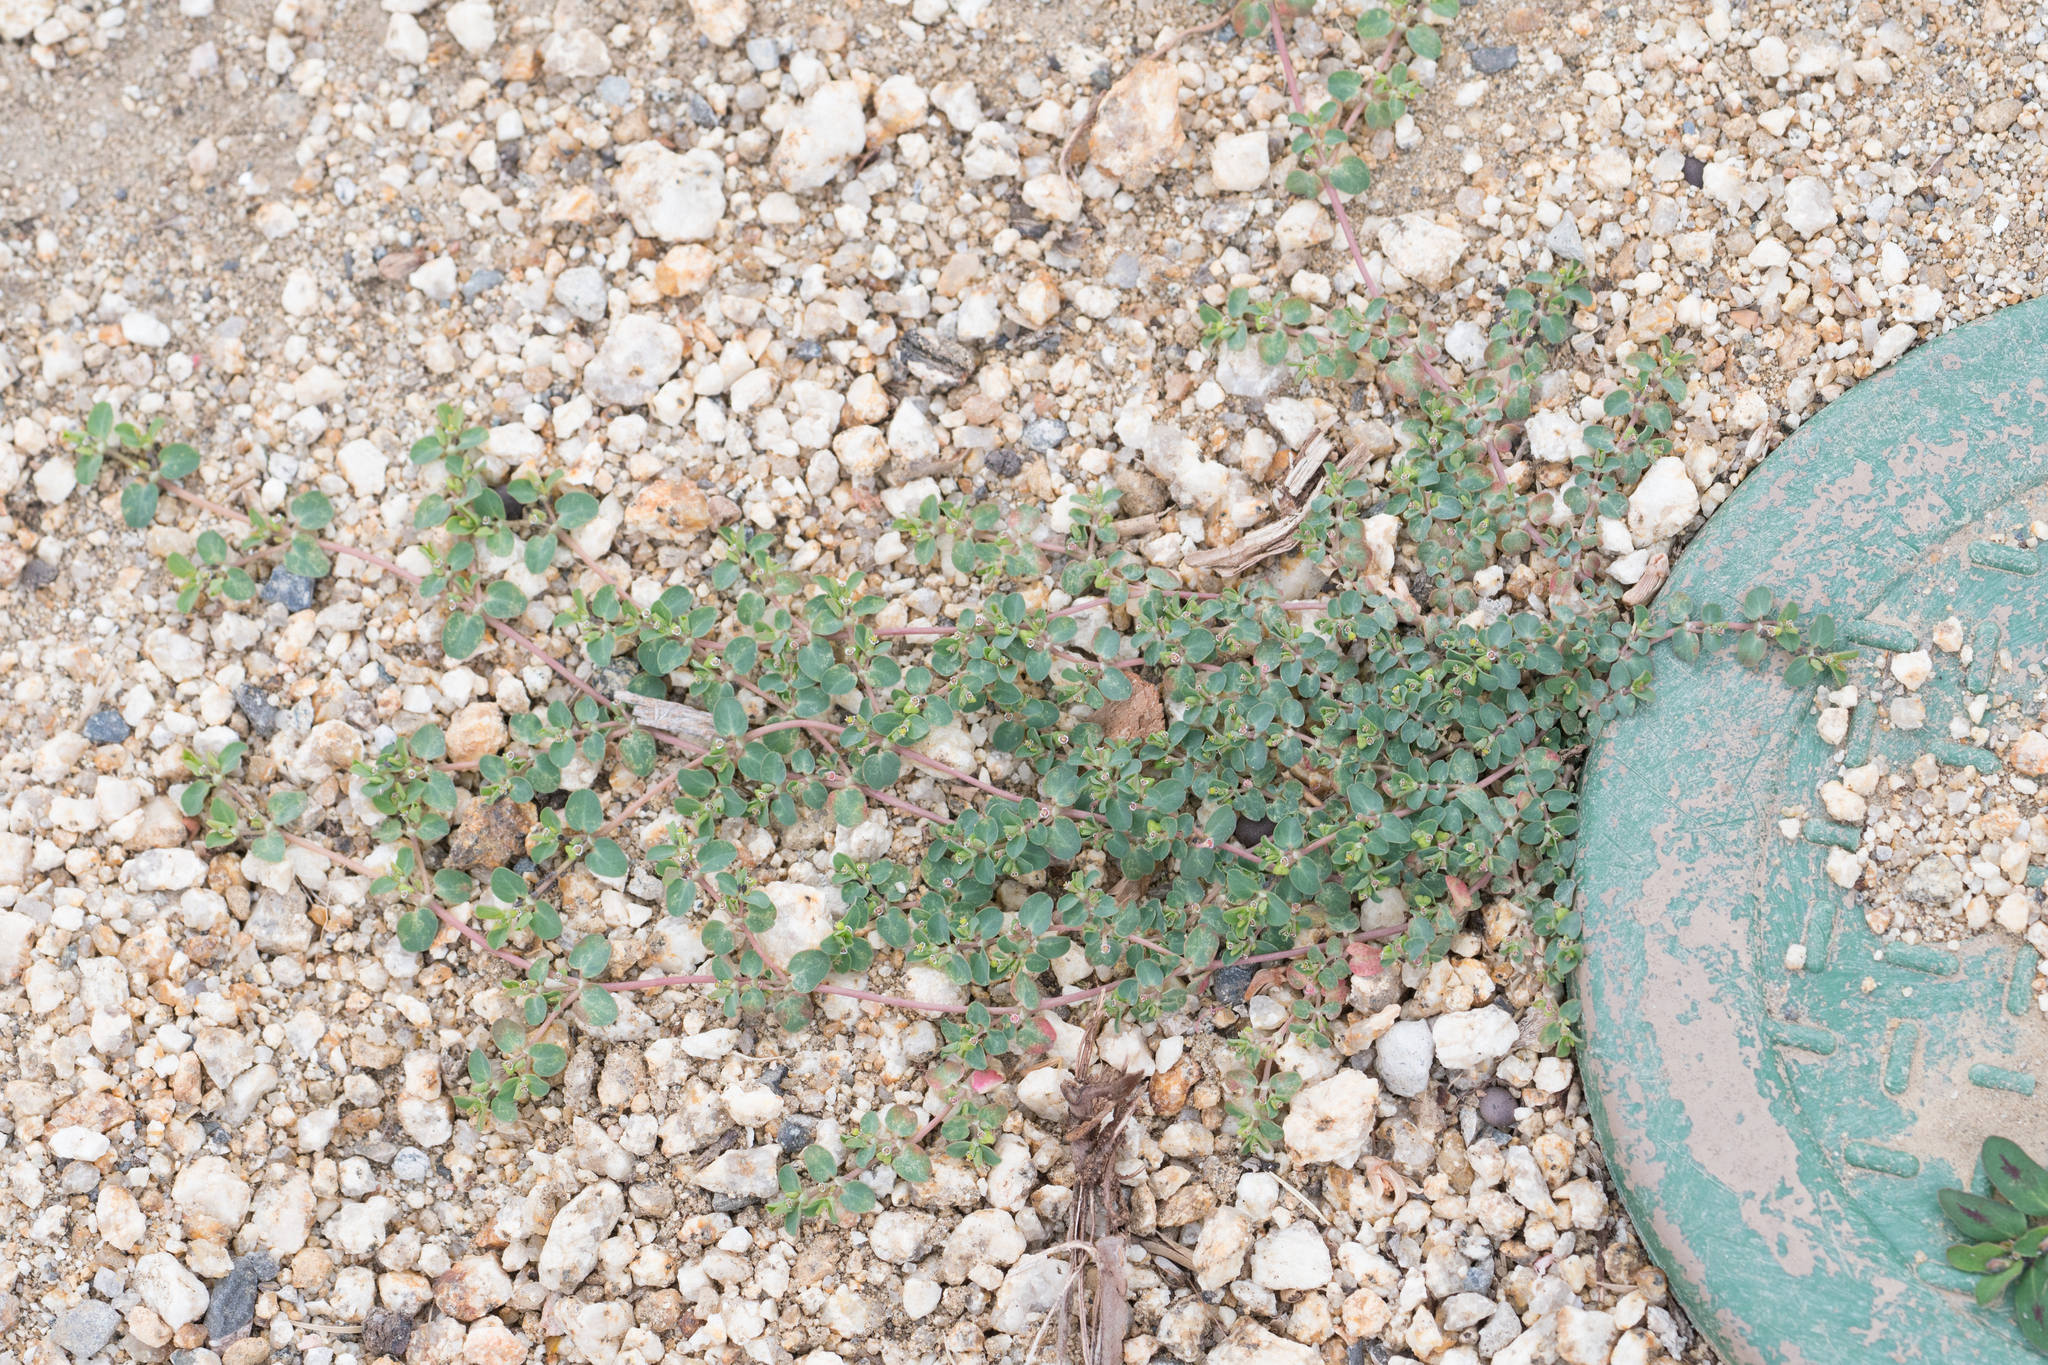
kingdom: Plantae
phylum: Tracheophyta
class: Magnoliopsida
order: Malpighiales
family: Euphorbiaceae
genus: Euphorbia
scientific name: Euphorbia serpens
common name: Matted sandmat
